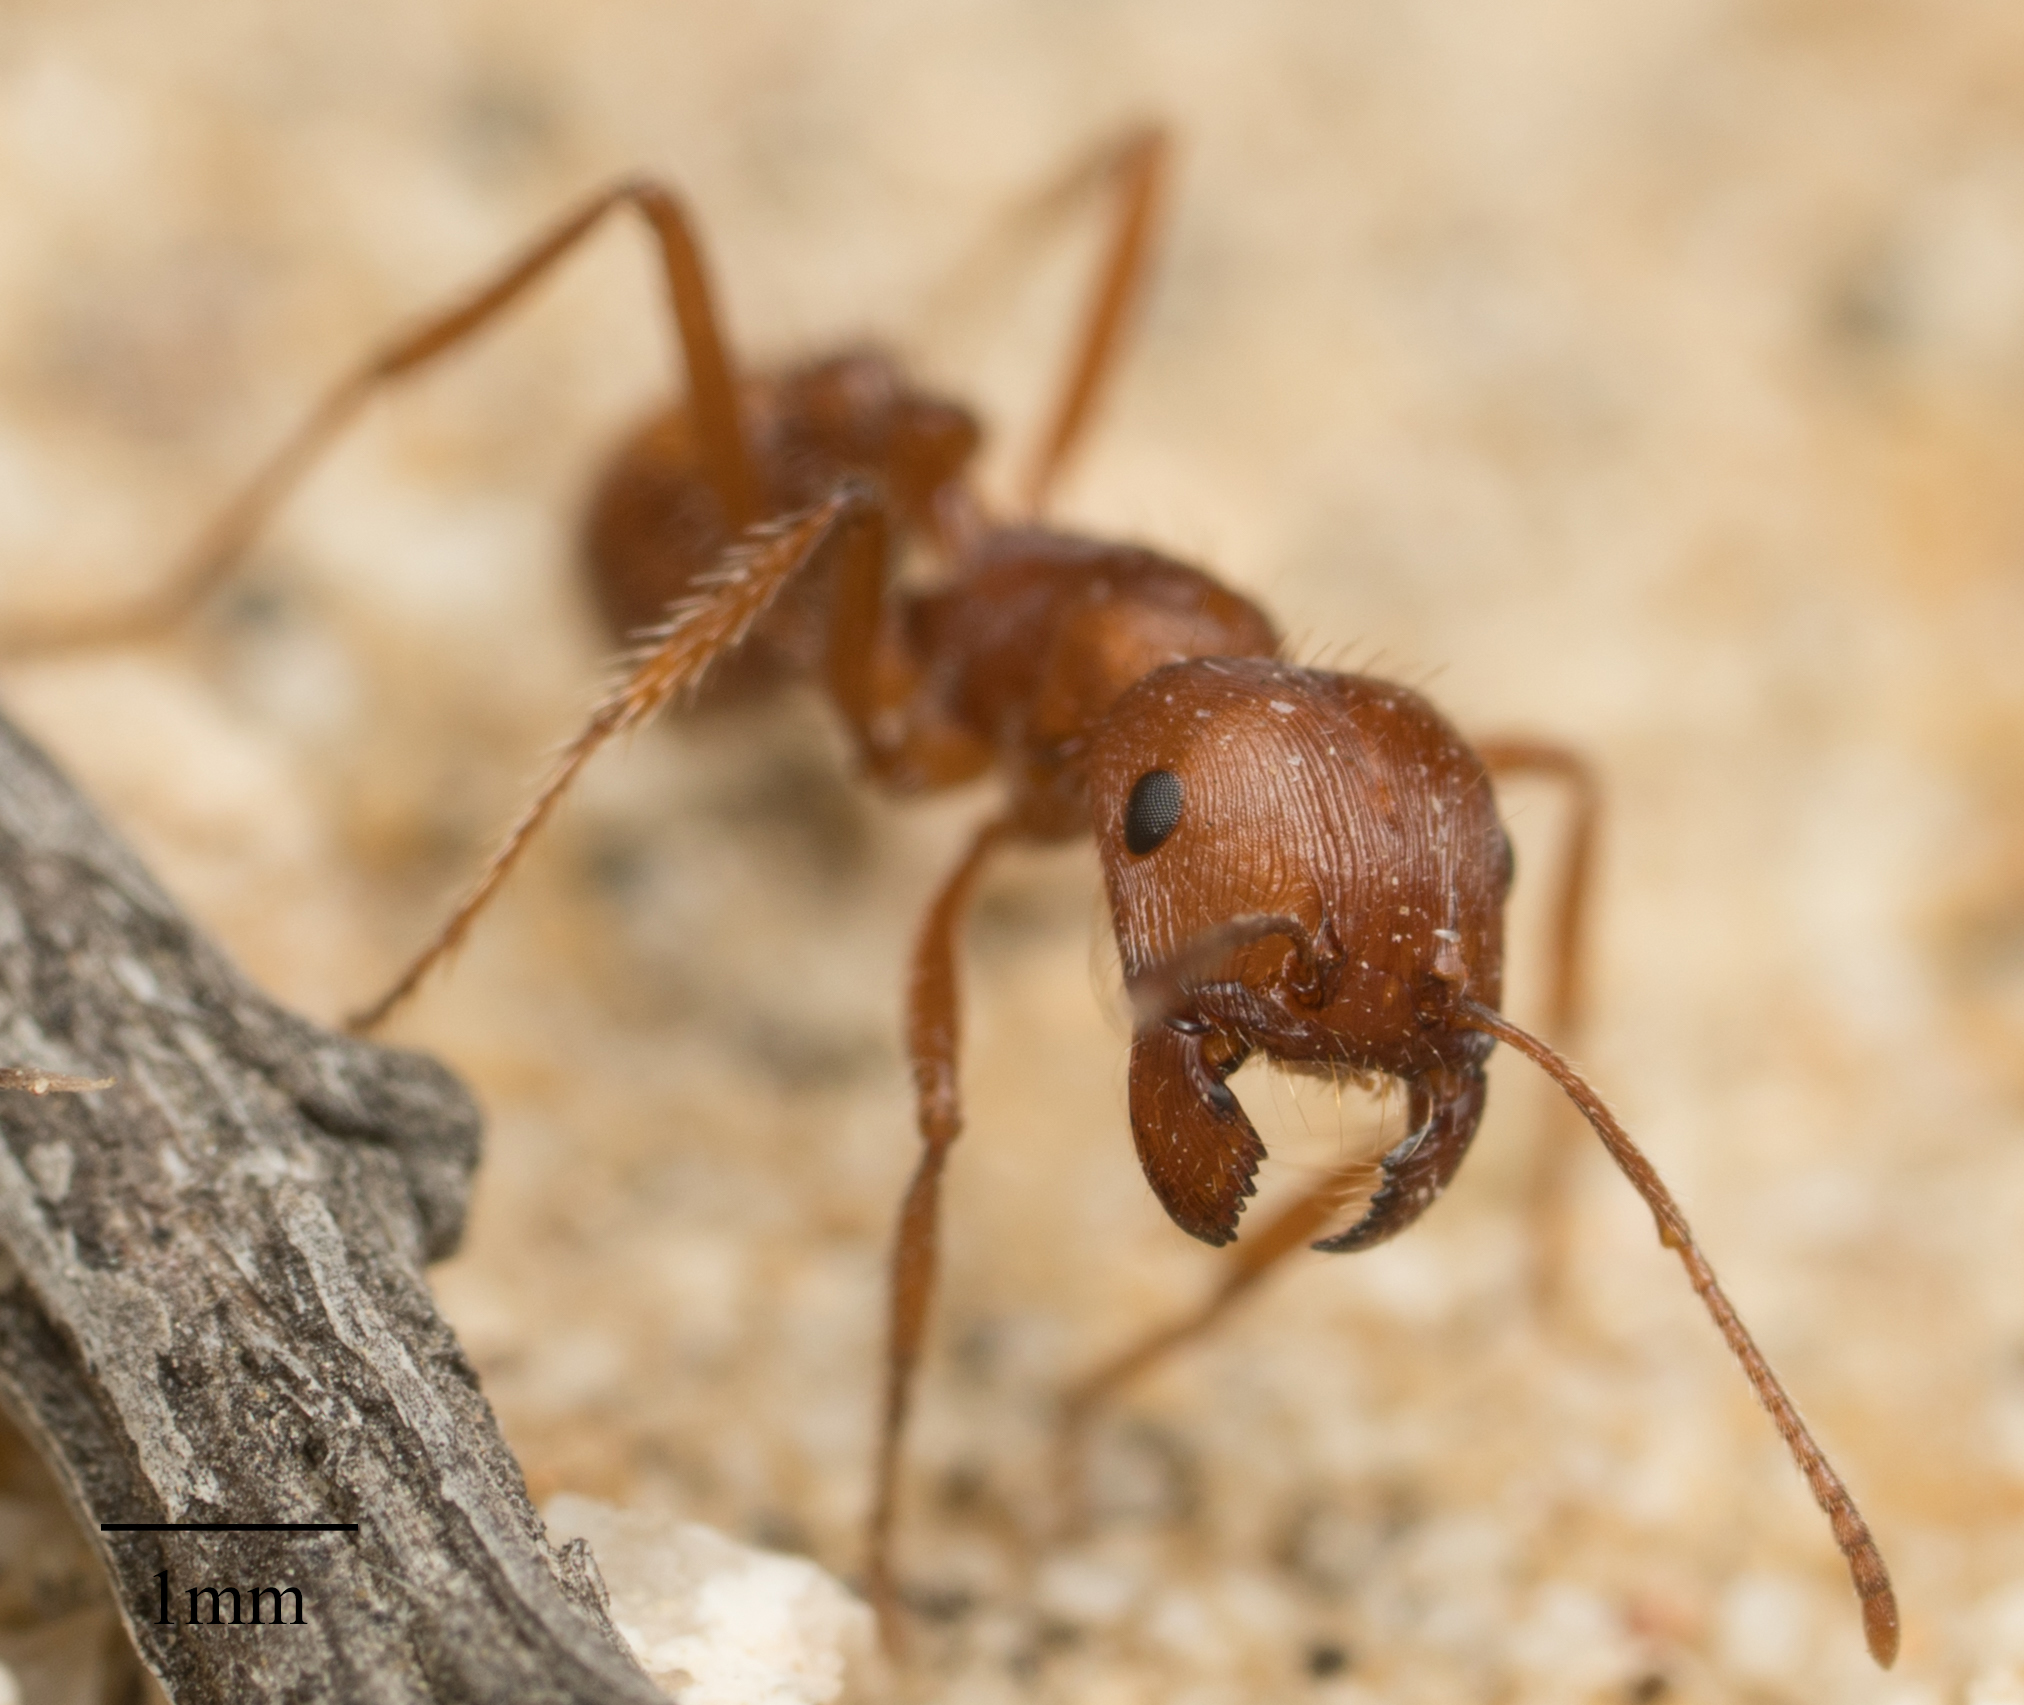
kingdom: Animalia
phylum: Arthropoda
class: Insecta
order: Hymenoptera
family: Formicidae
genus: Pogonomyrmex
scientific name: Pogonomyrmex subnitidus
